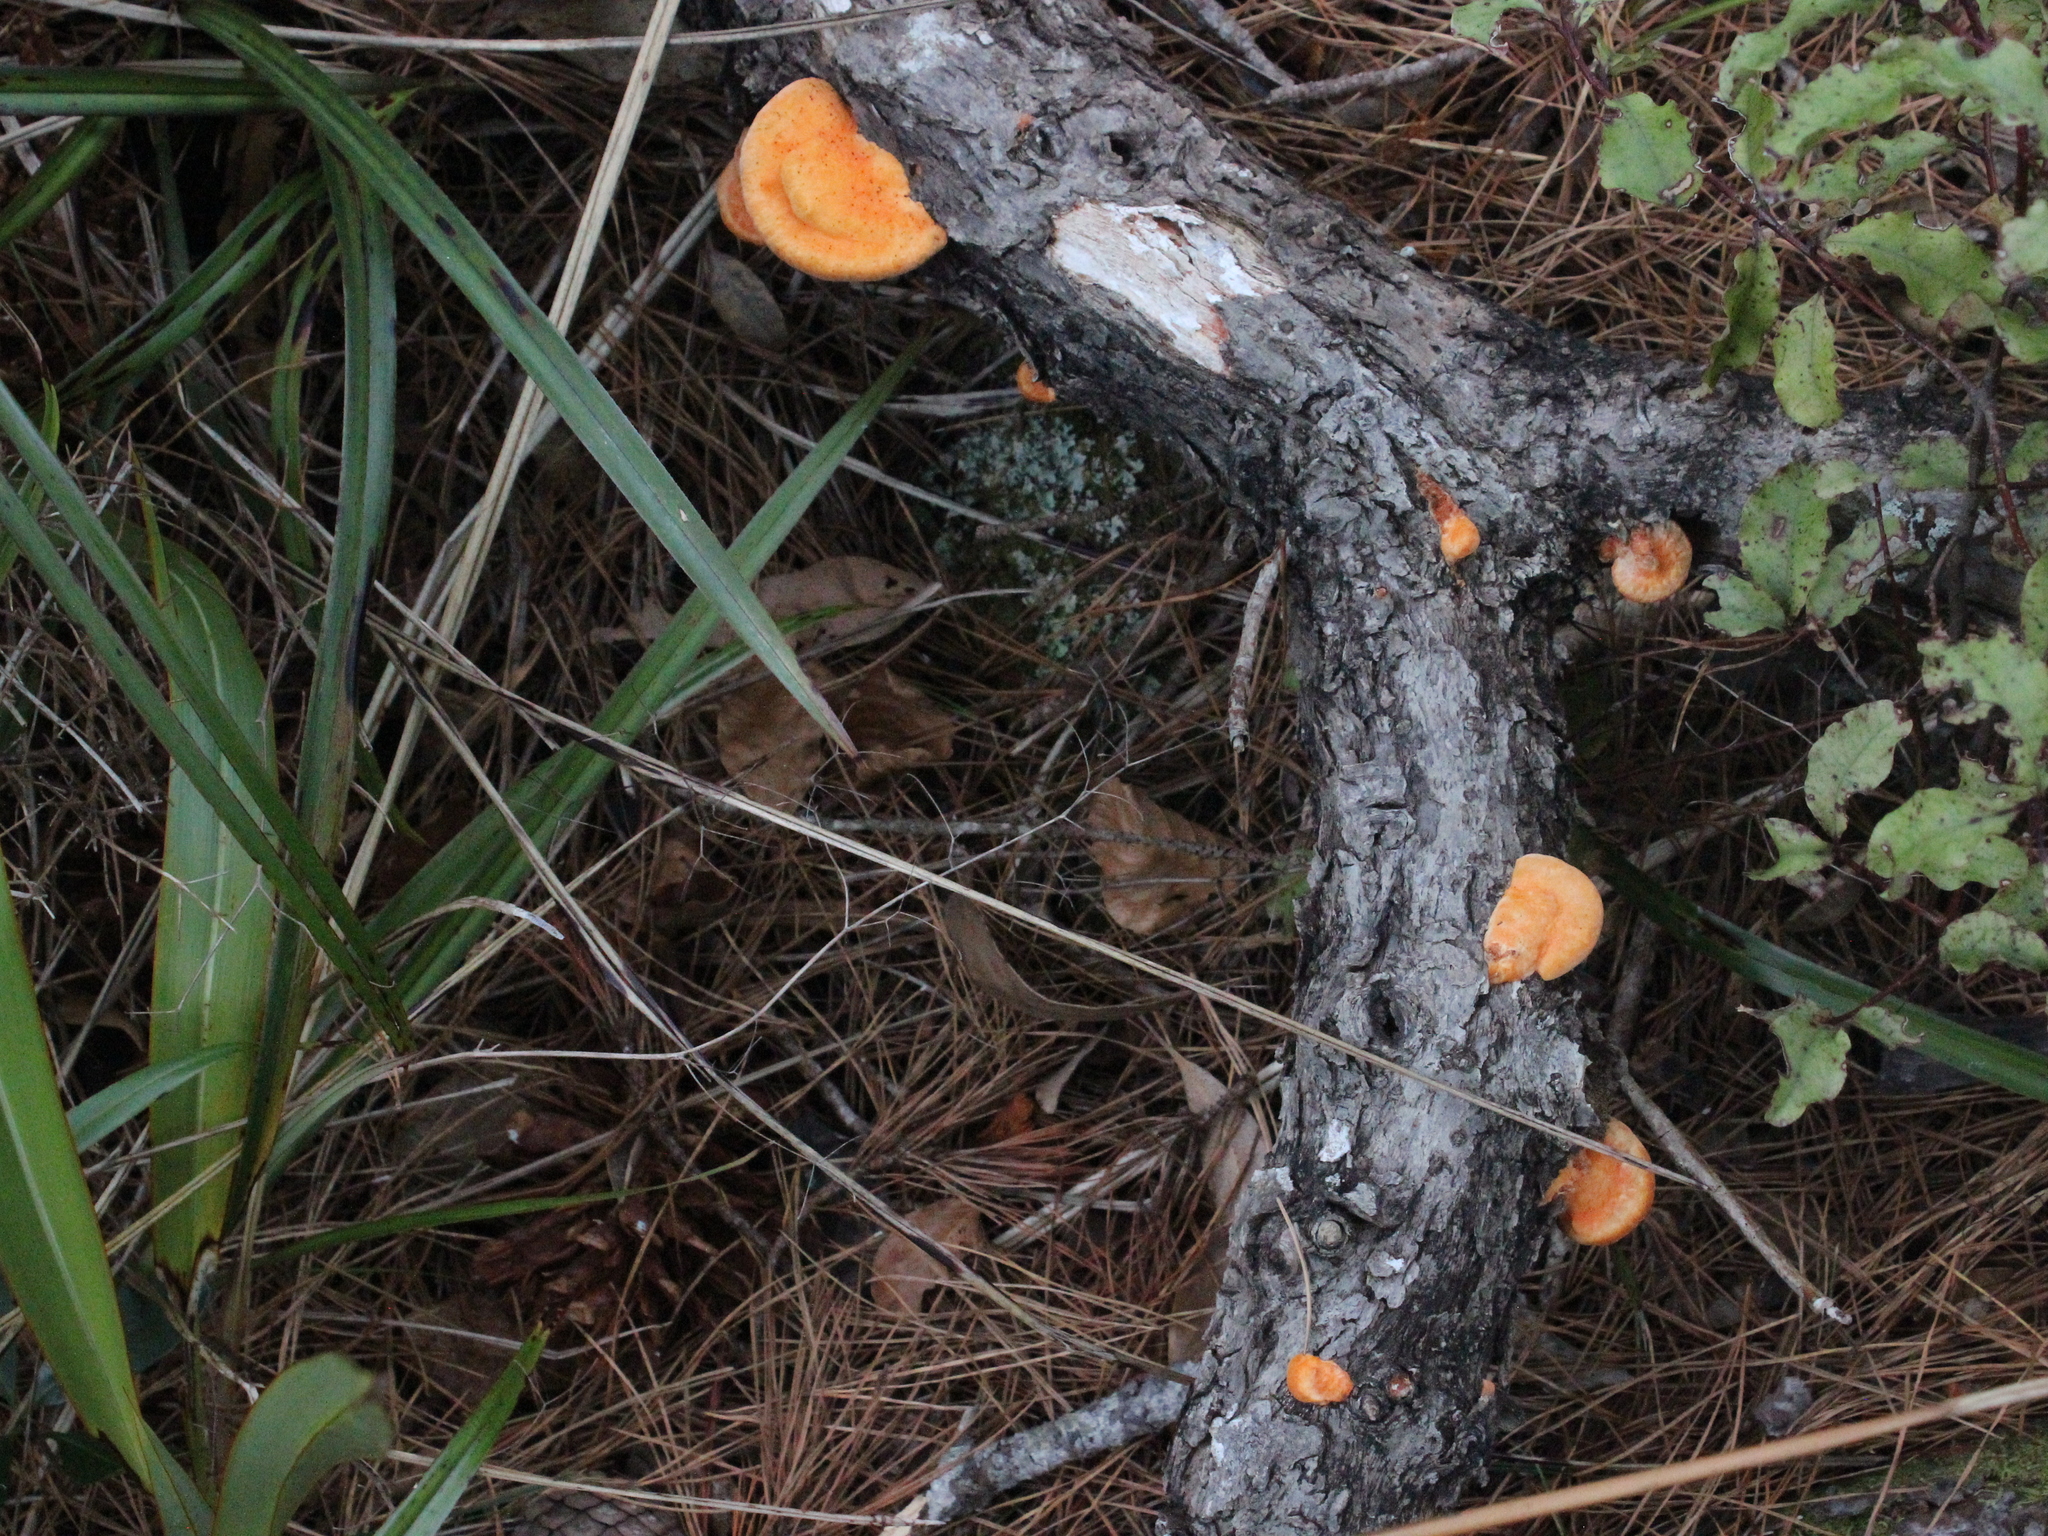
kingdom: Fungi
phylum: Basidiomycota
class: Agaricomycetes
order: Polyporales
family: Polyporaceae
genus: Trametes
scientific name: Trametes coccinea
